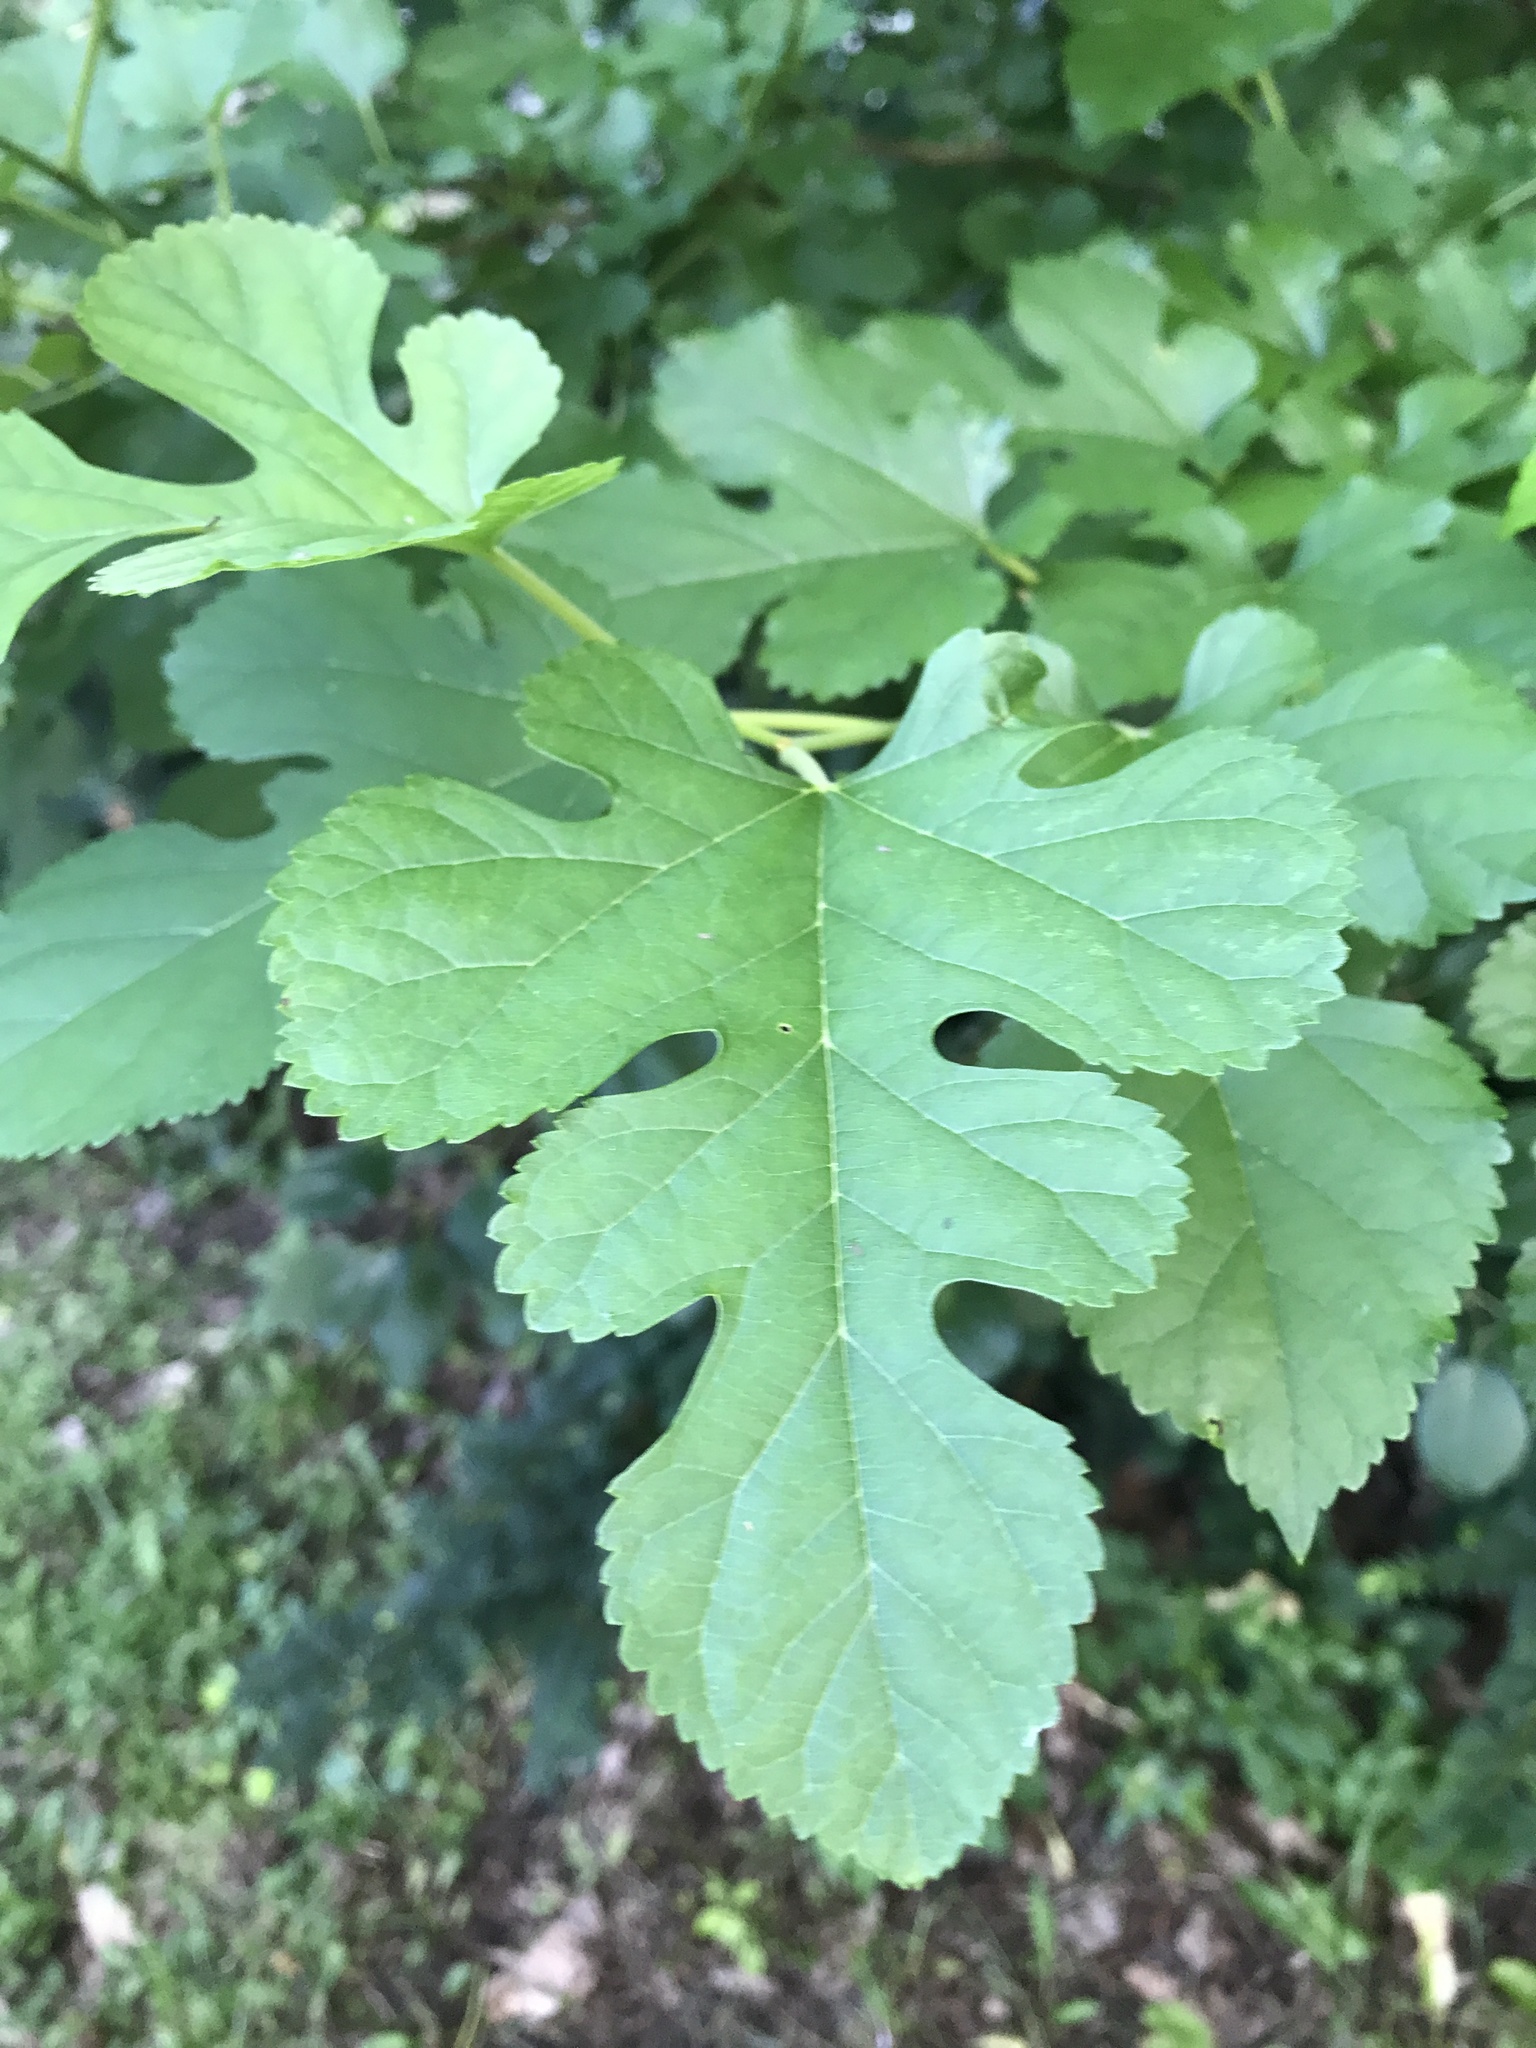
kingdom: Plantae
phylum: Tracheophyta
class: Magnoliopsida
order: Rosales
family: Moraceae
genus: Morus
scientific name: Morus alba
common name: White mulberry
